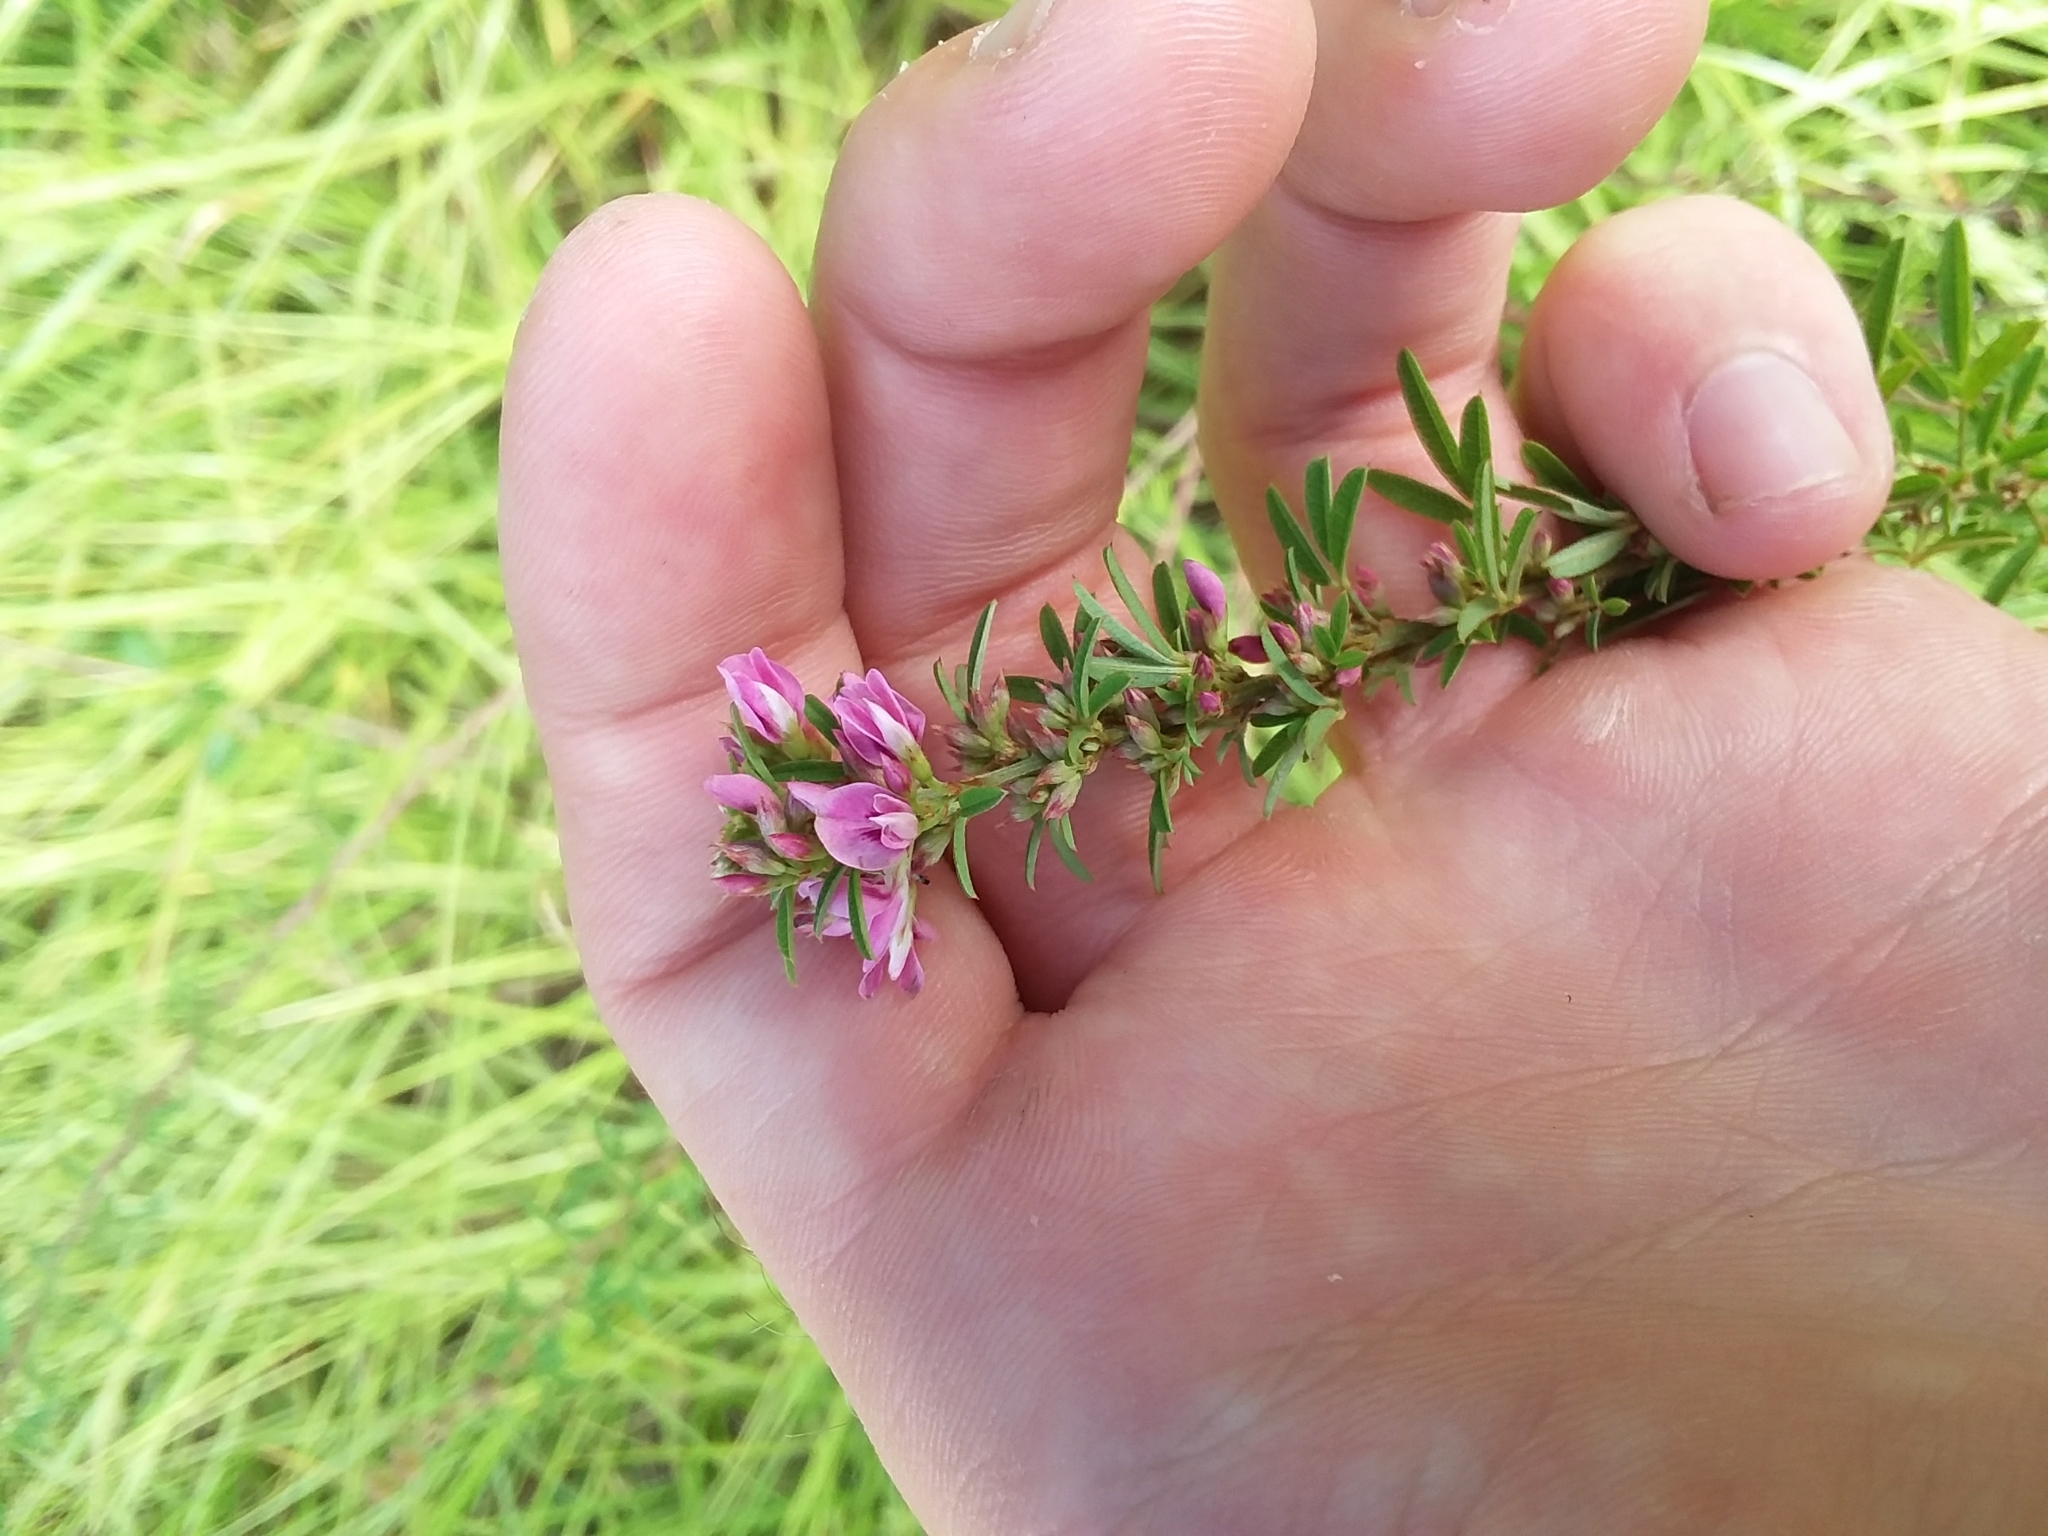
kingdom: Plantae
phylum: Tracheophyta
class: Magnoliopsida
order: Fabales
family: Fabaceae
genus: Lespedeza
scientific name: Lespedeza virginica
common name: Slender bush-clover
